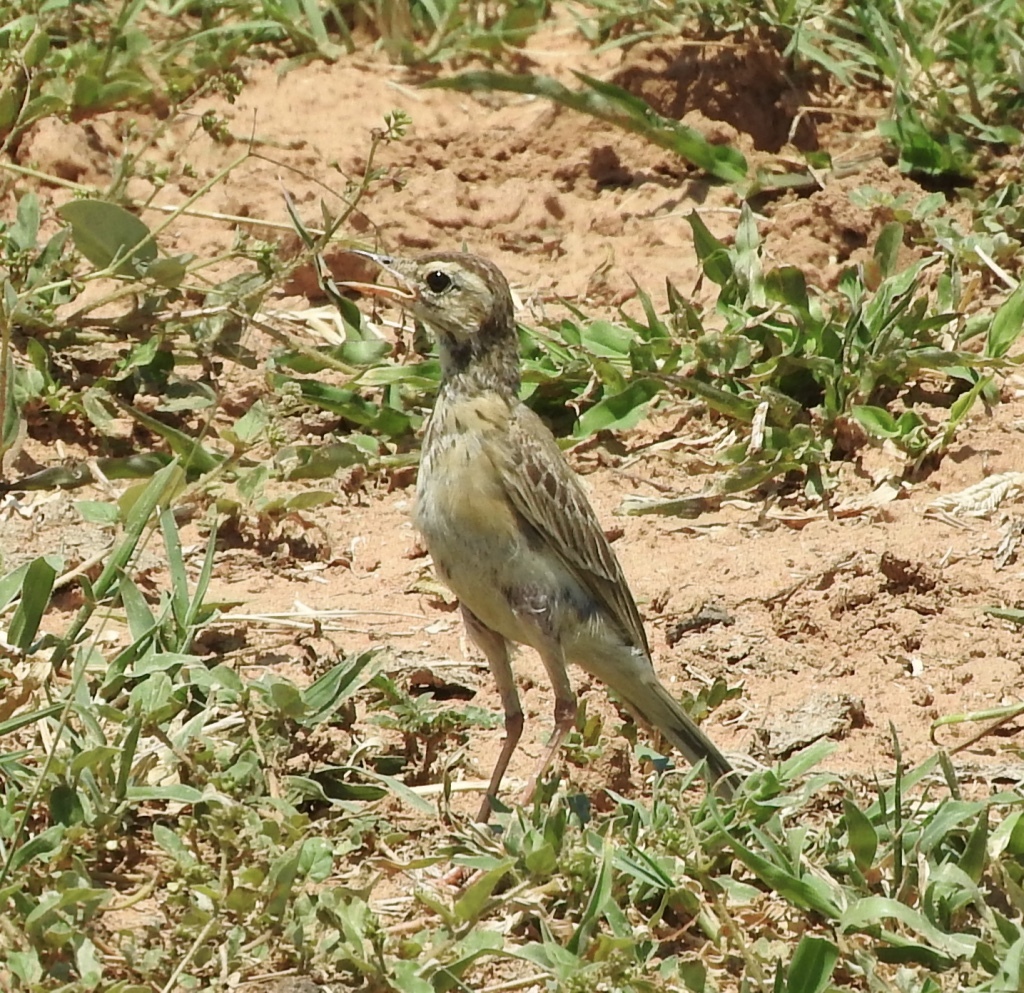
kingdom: Animalia
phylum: Chordata
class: Aves
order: Passeriformes
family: Motacillidae
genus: Anthus
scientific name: Anthus cinnamomeus
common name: African pipit
